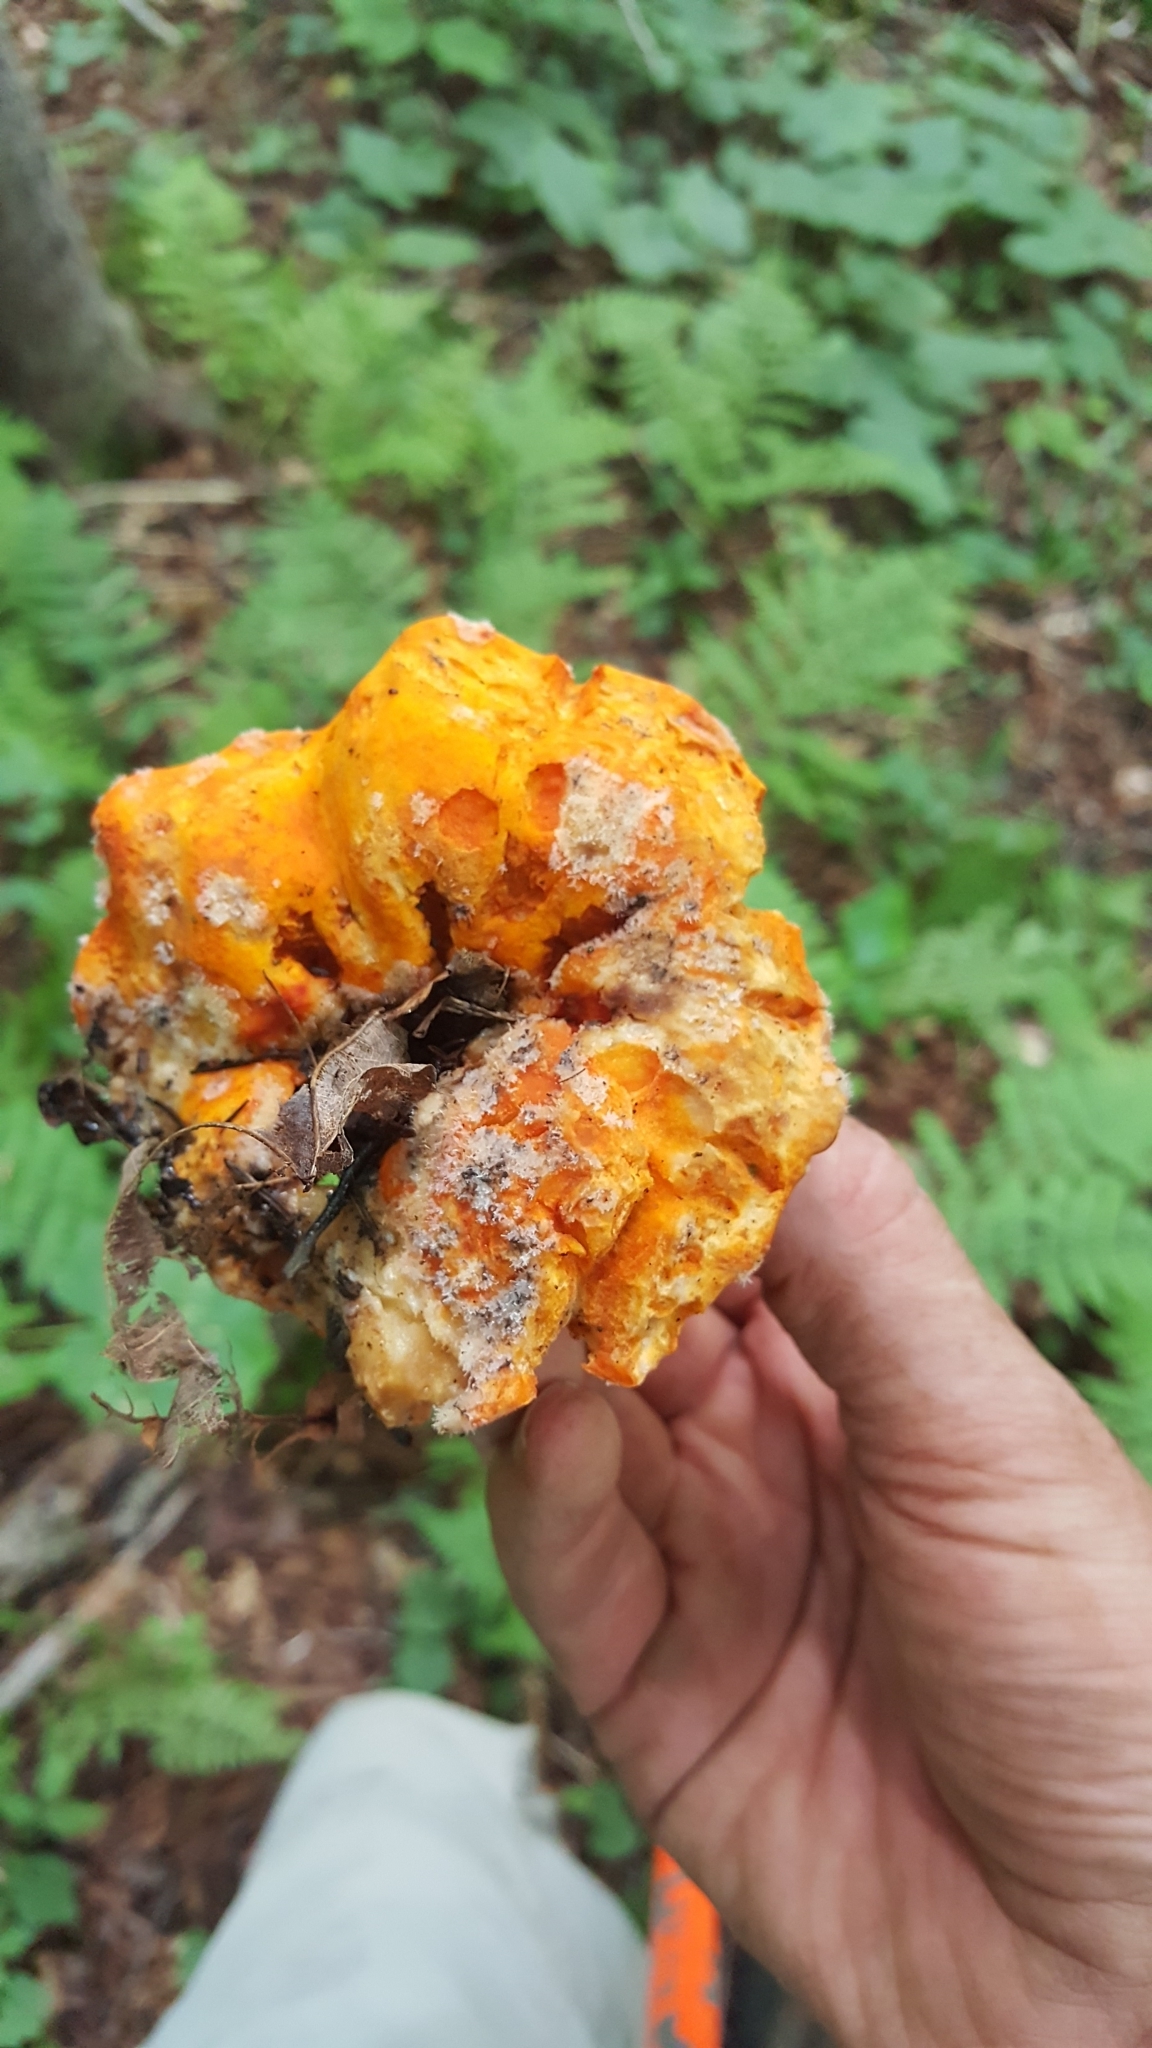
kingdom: Fungi
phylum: Ascomycota
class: Sordariomycetes
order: Hypocreales
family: Hypocreaceae
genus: Hypomyces
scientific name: Hypomyces lactifluorum
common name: Lobster mushroom
